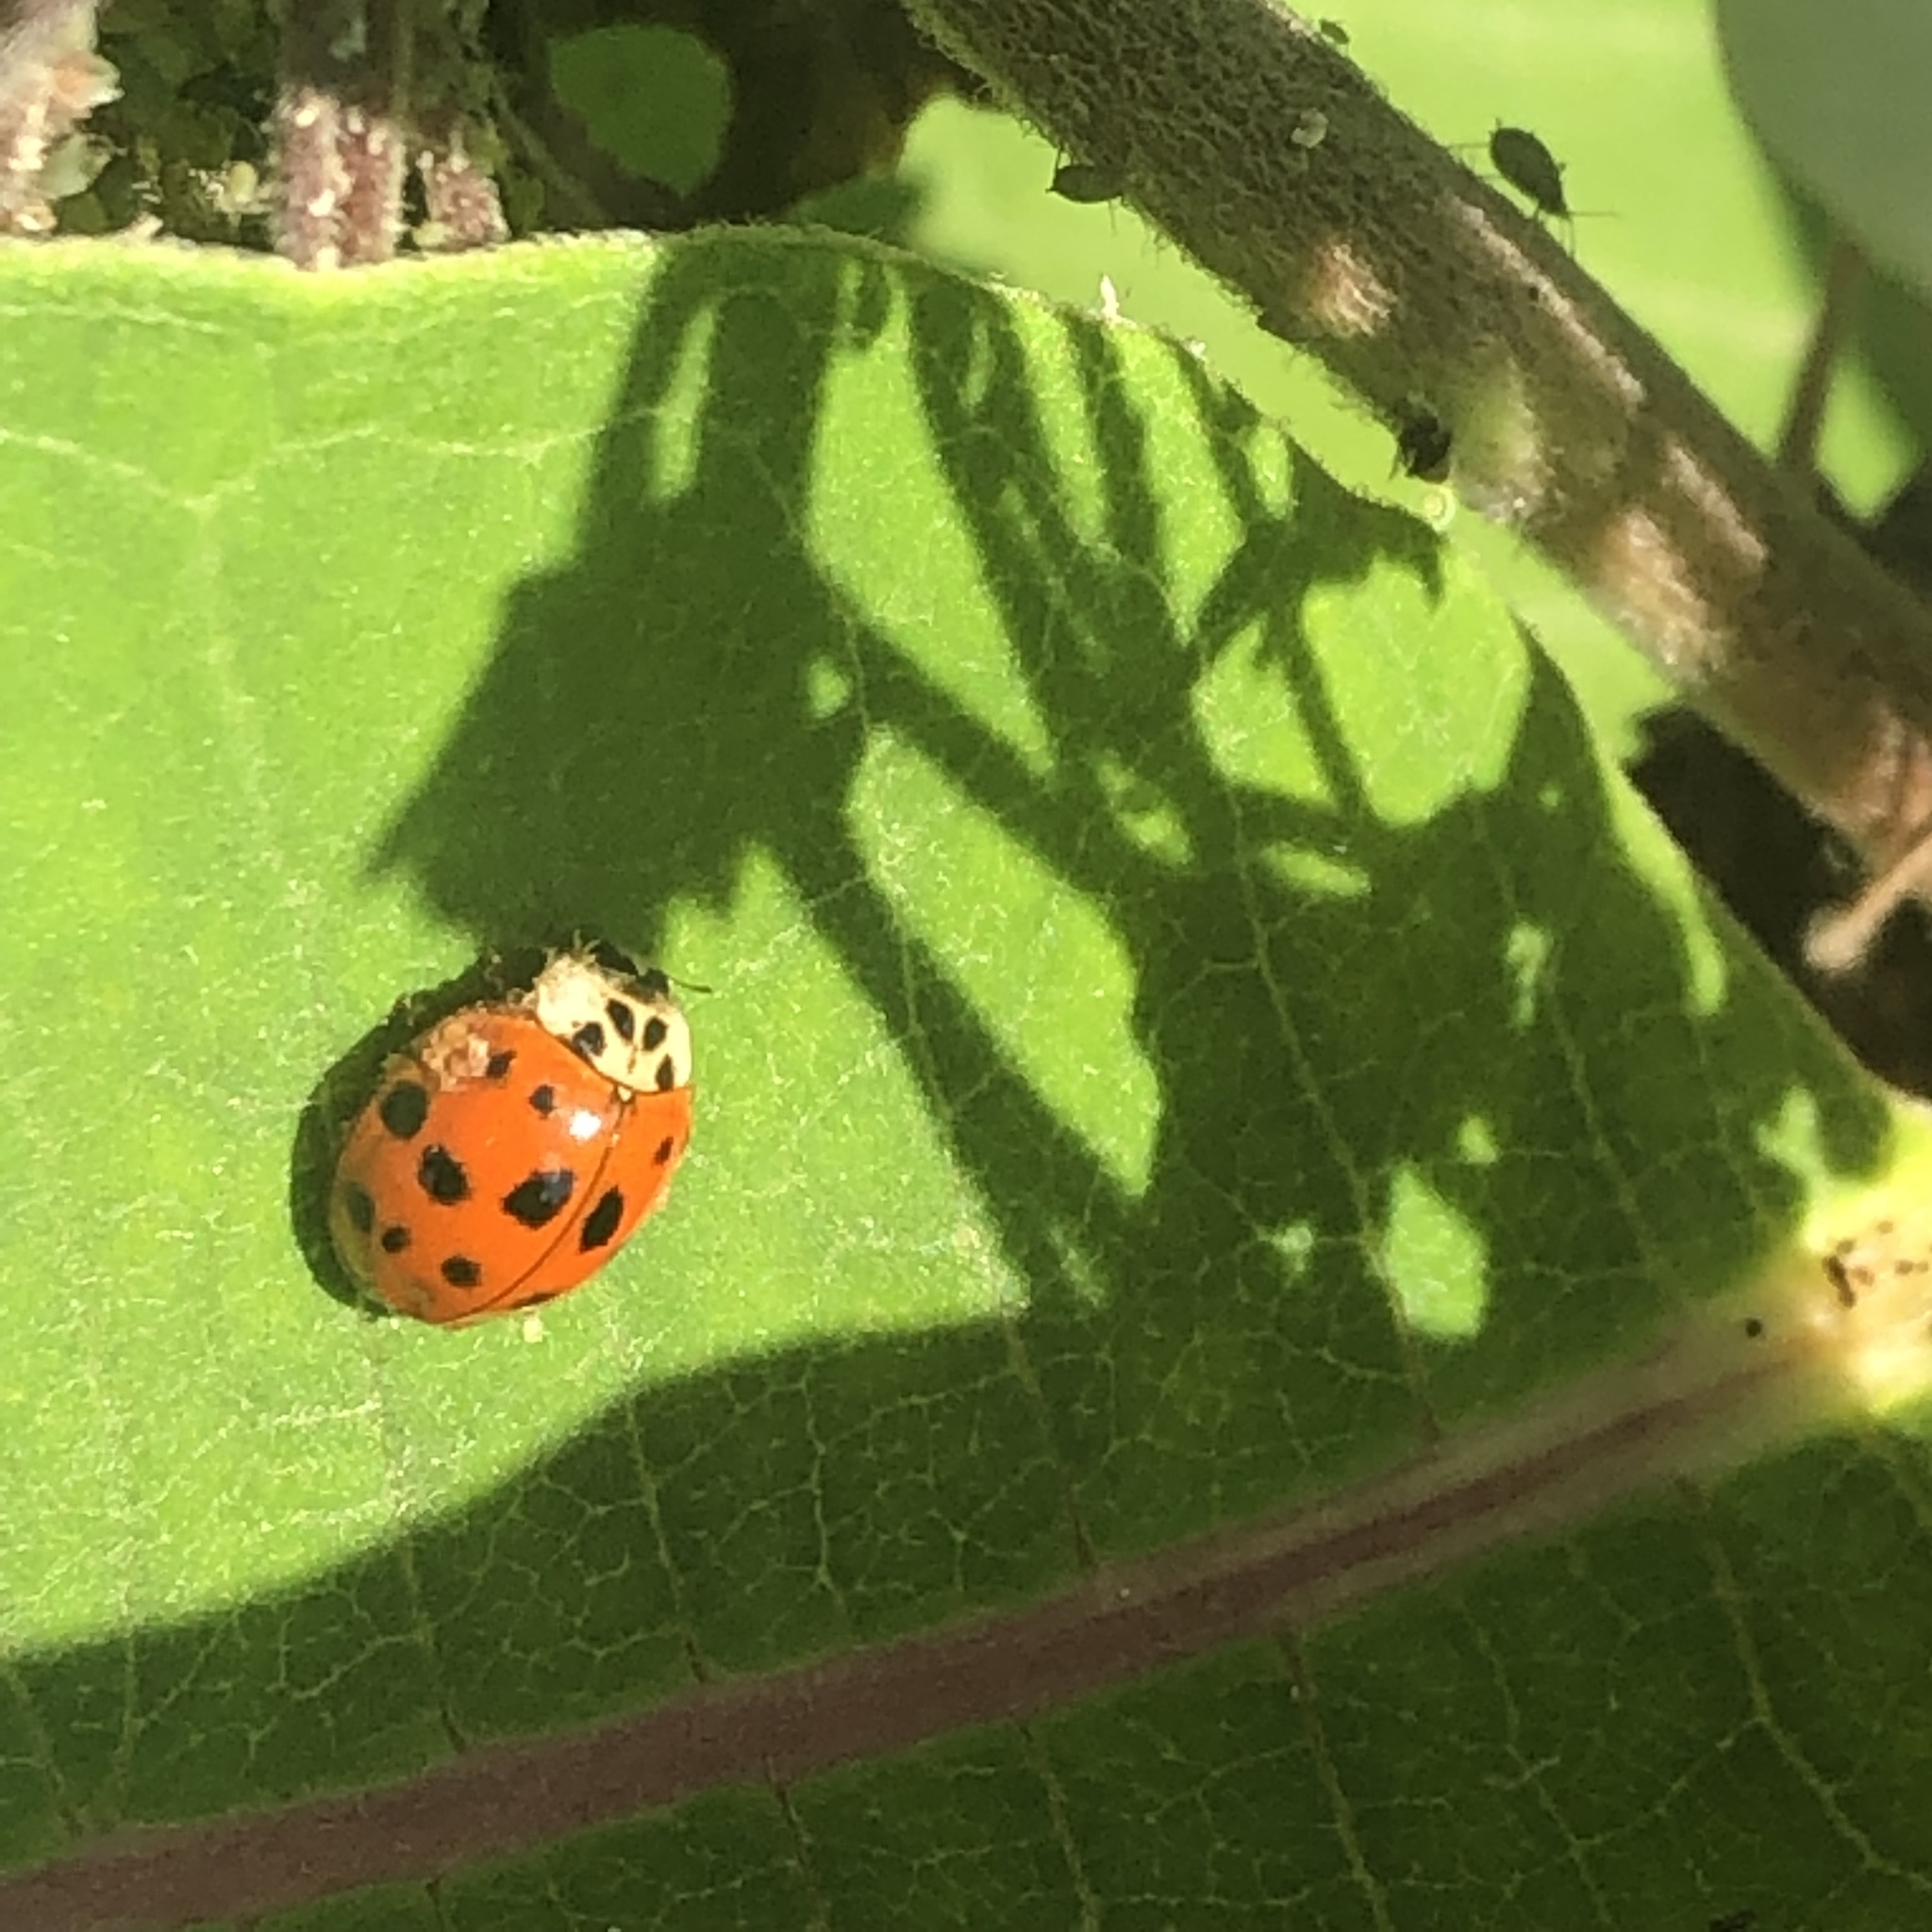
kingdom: Animalia
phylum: Arthropoda
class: Insecta
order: Coleoptera
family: Coccinellidae
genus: Harmonia
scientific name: Harmonia axyridis
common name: Harlequin ladybird
